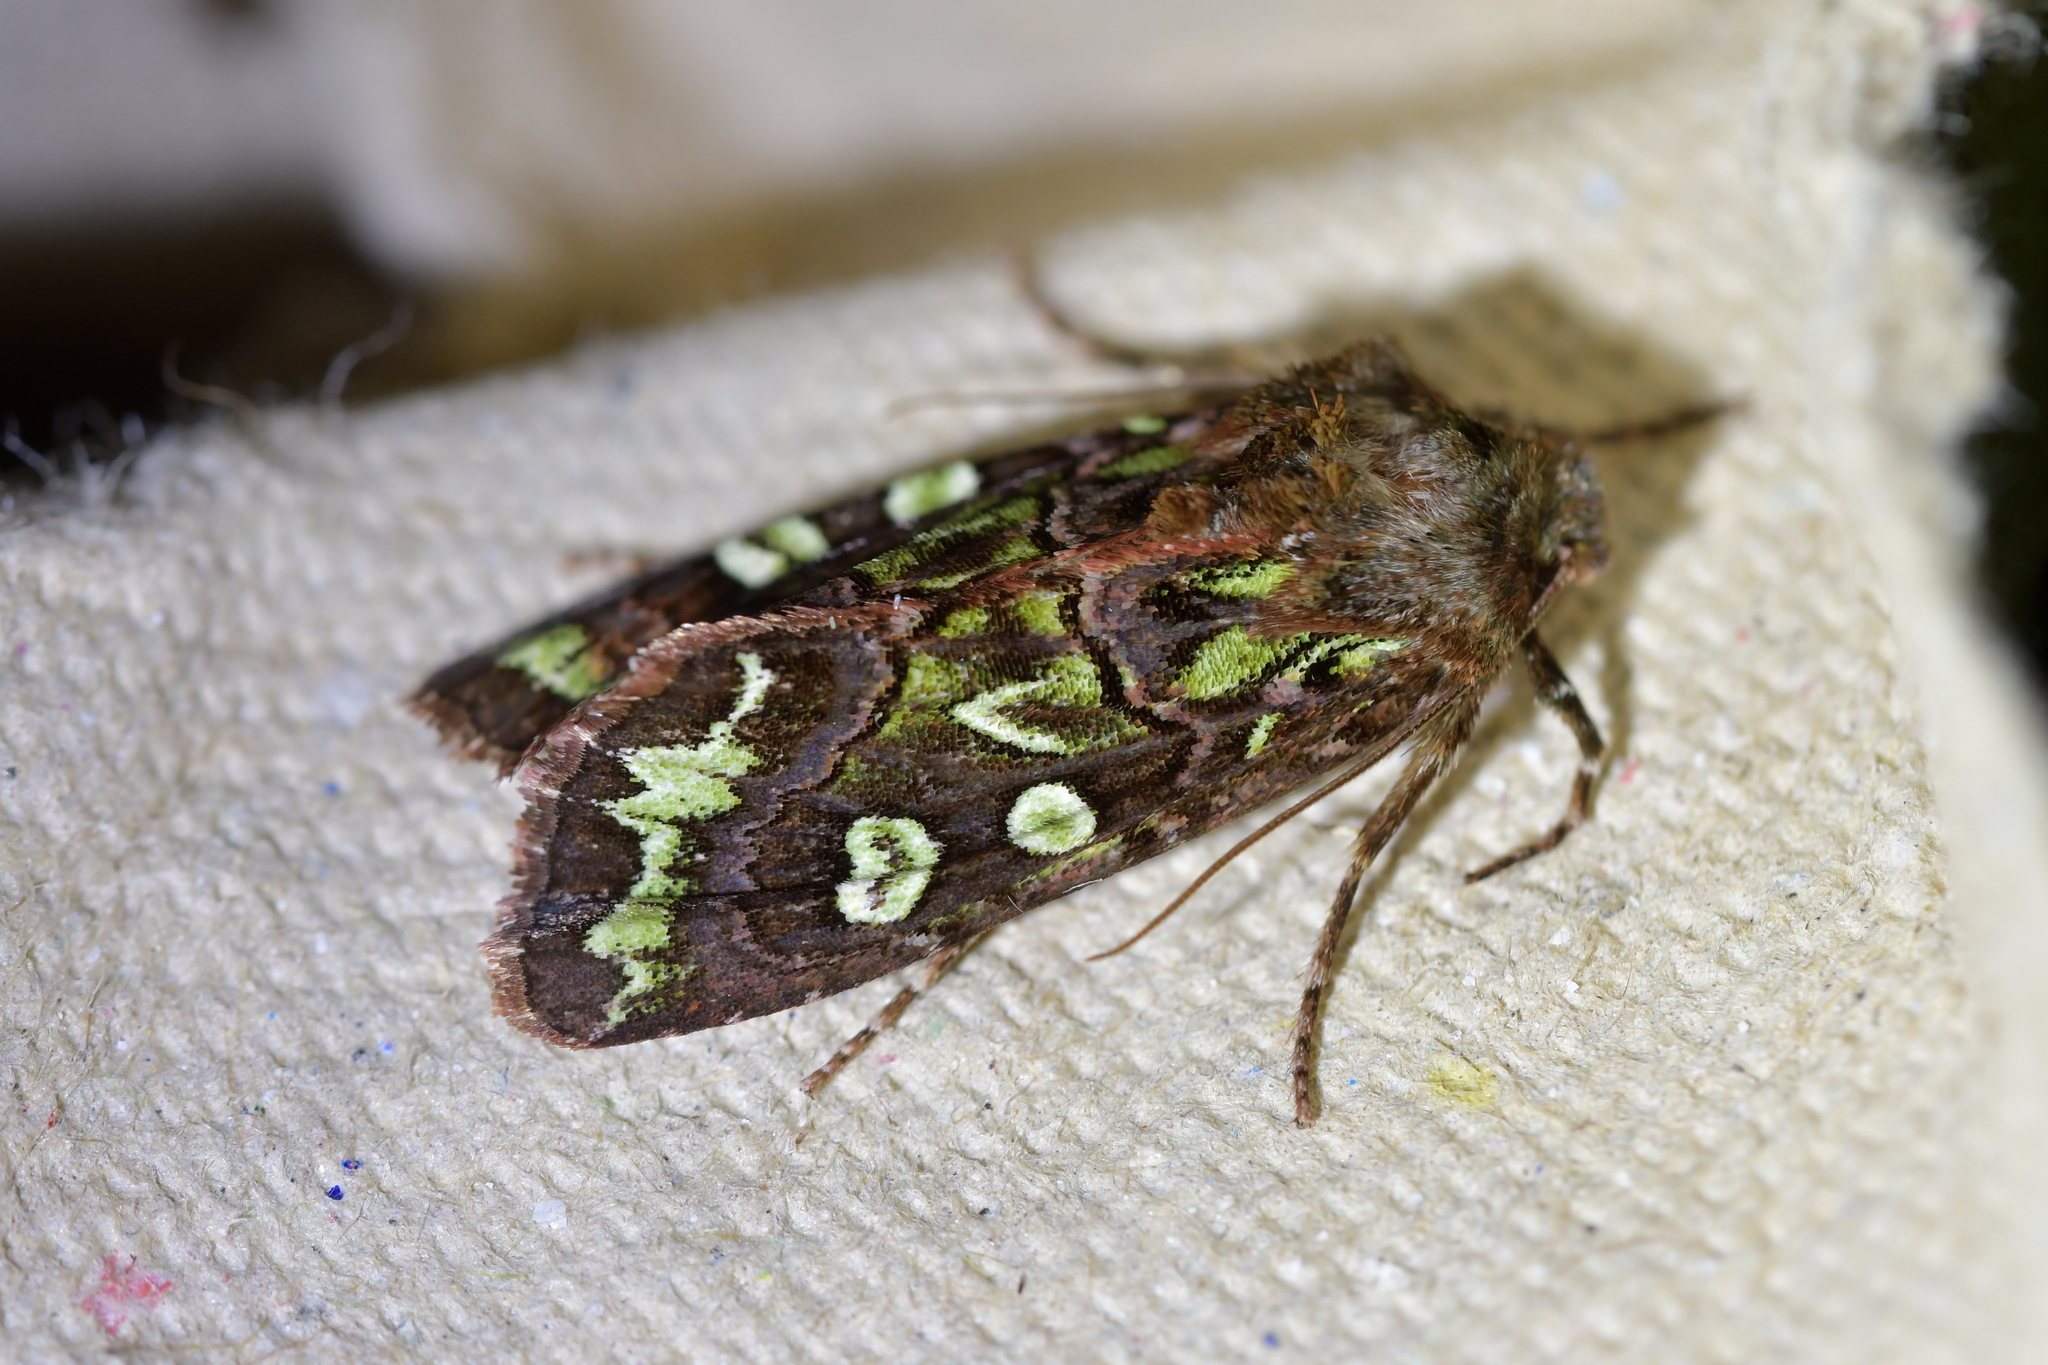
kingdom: Animalia
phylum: Arthropoda
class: Insecta
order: Lepidoptera
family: Noctuidae
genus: Ichneutica
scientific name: Ichneutica chlorodonta
